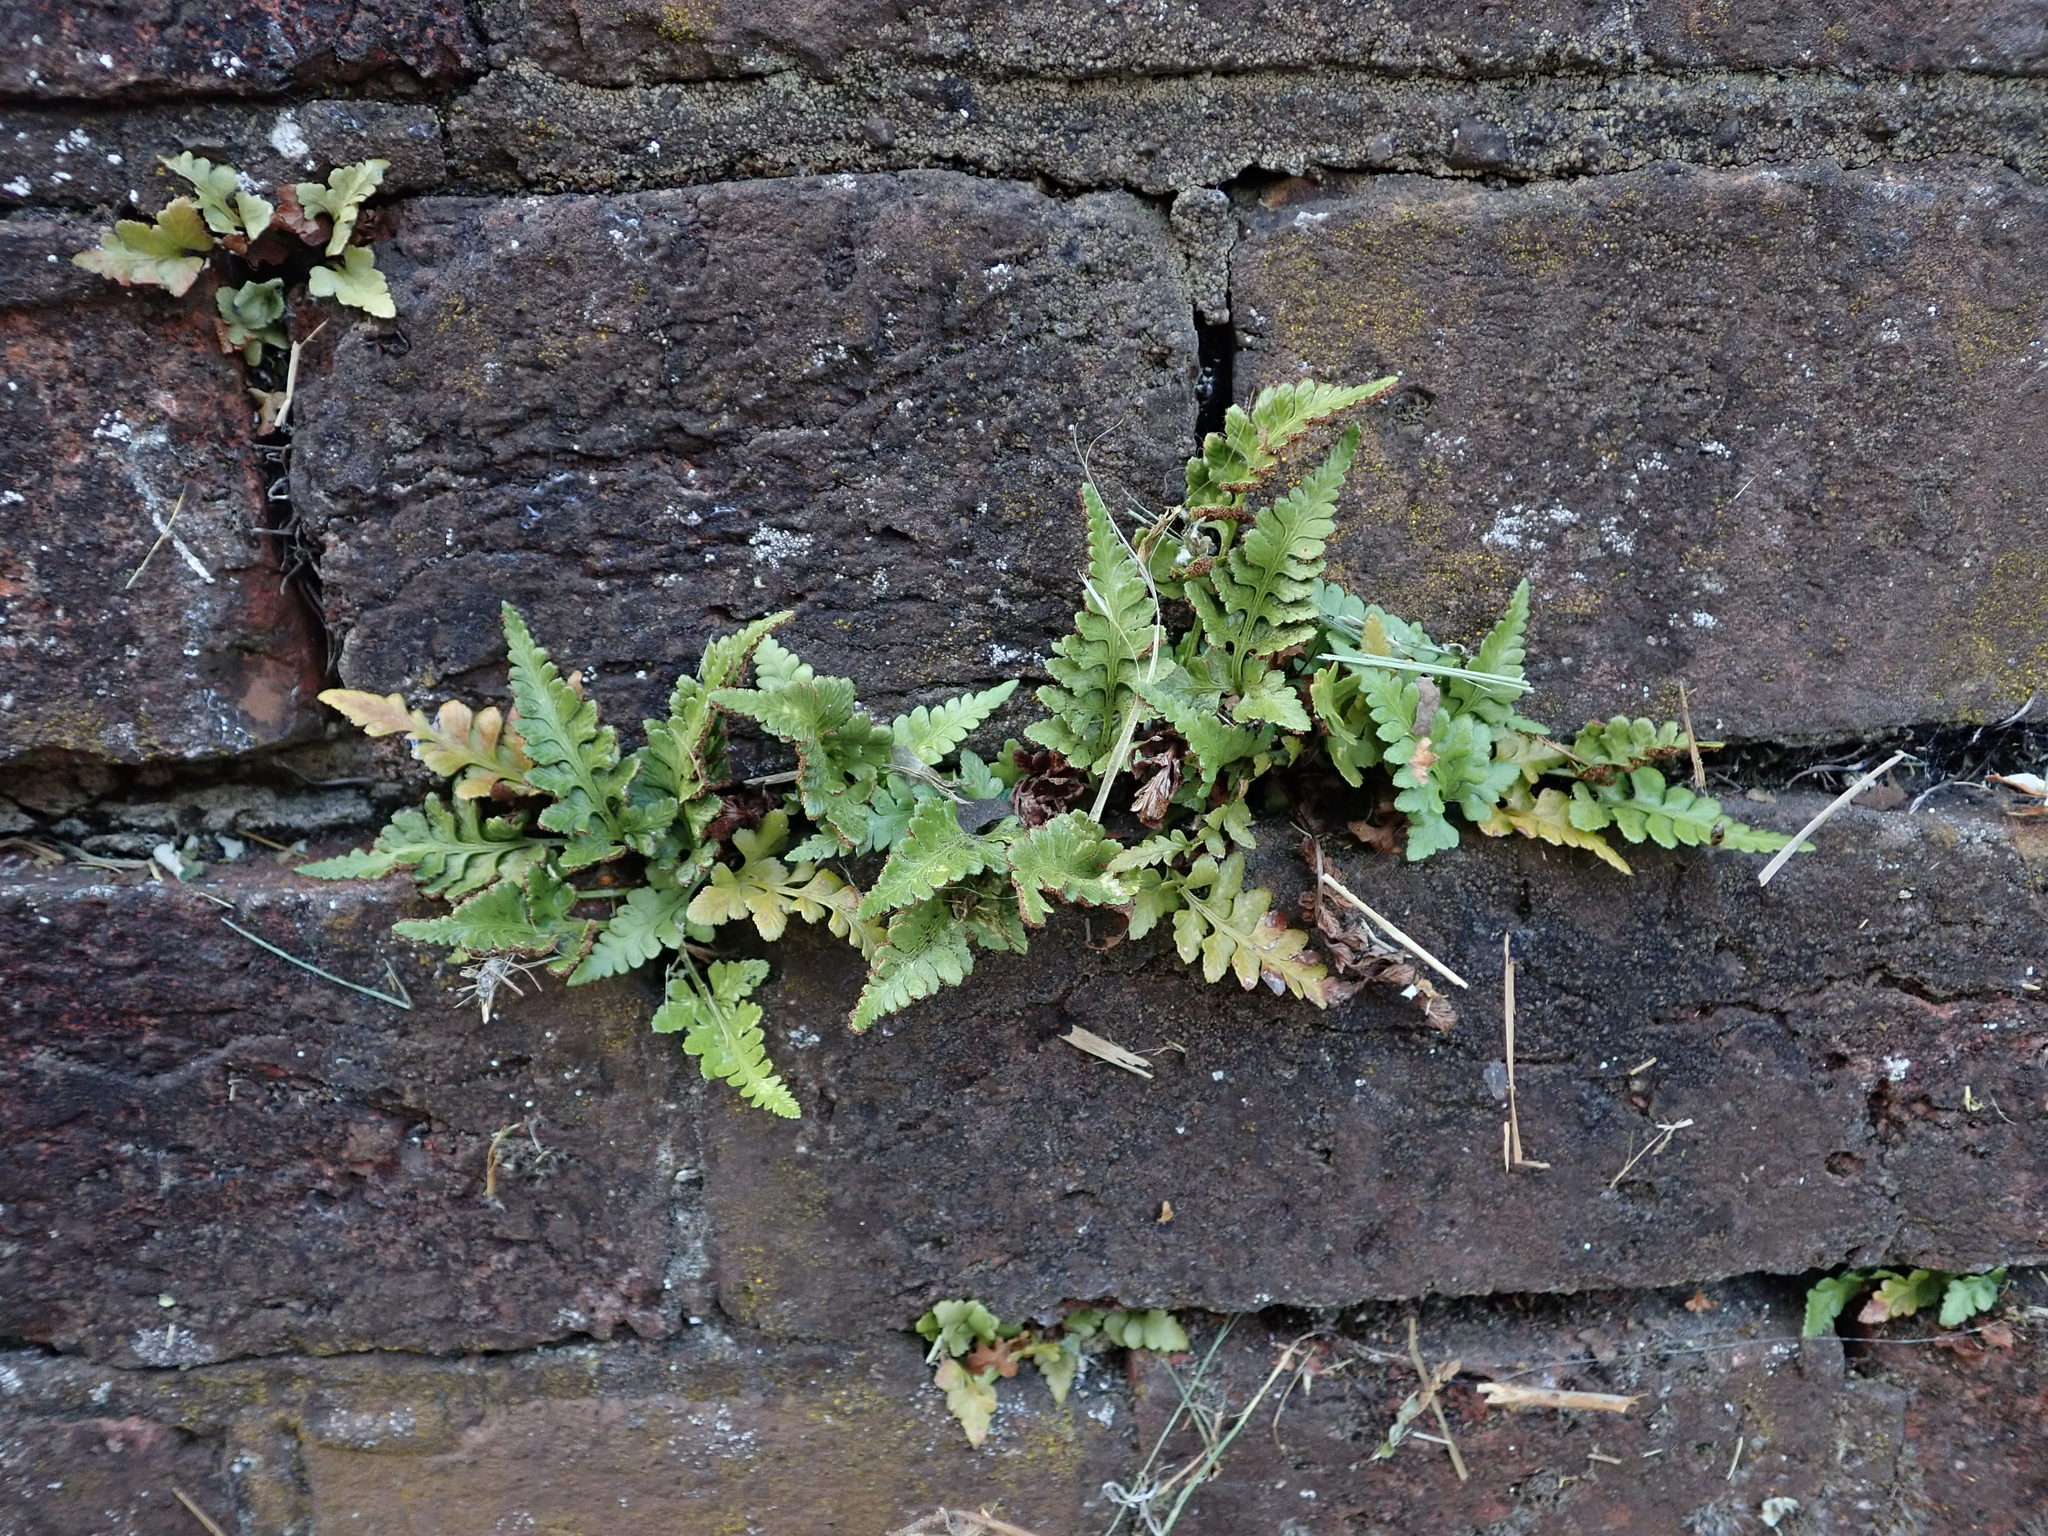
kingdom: Plantae
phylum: Tracheophyta
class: Polypodiopsida
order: Polypodiales
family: Aspleniaceae
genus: Asplenium
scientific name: Asplenium adiantum-nigrum
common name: Black spleenwort
